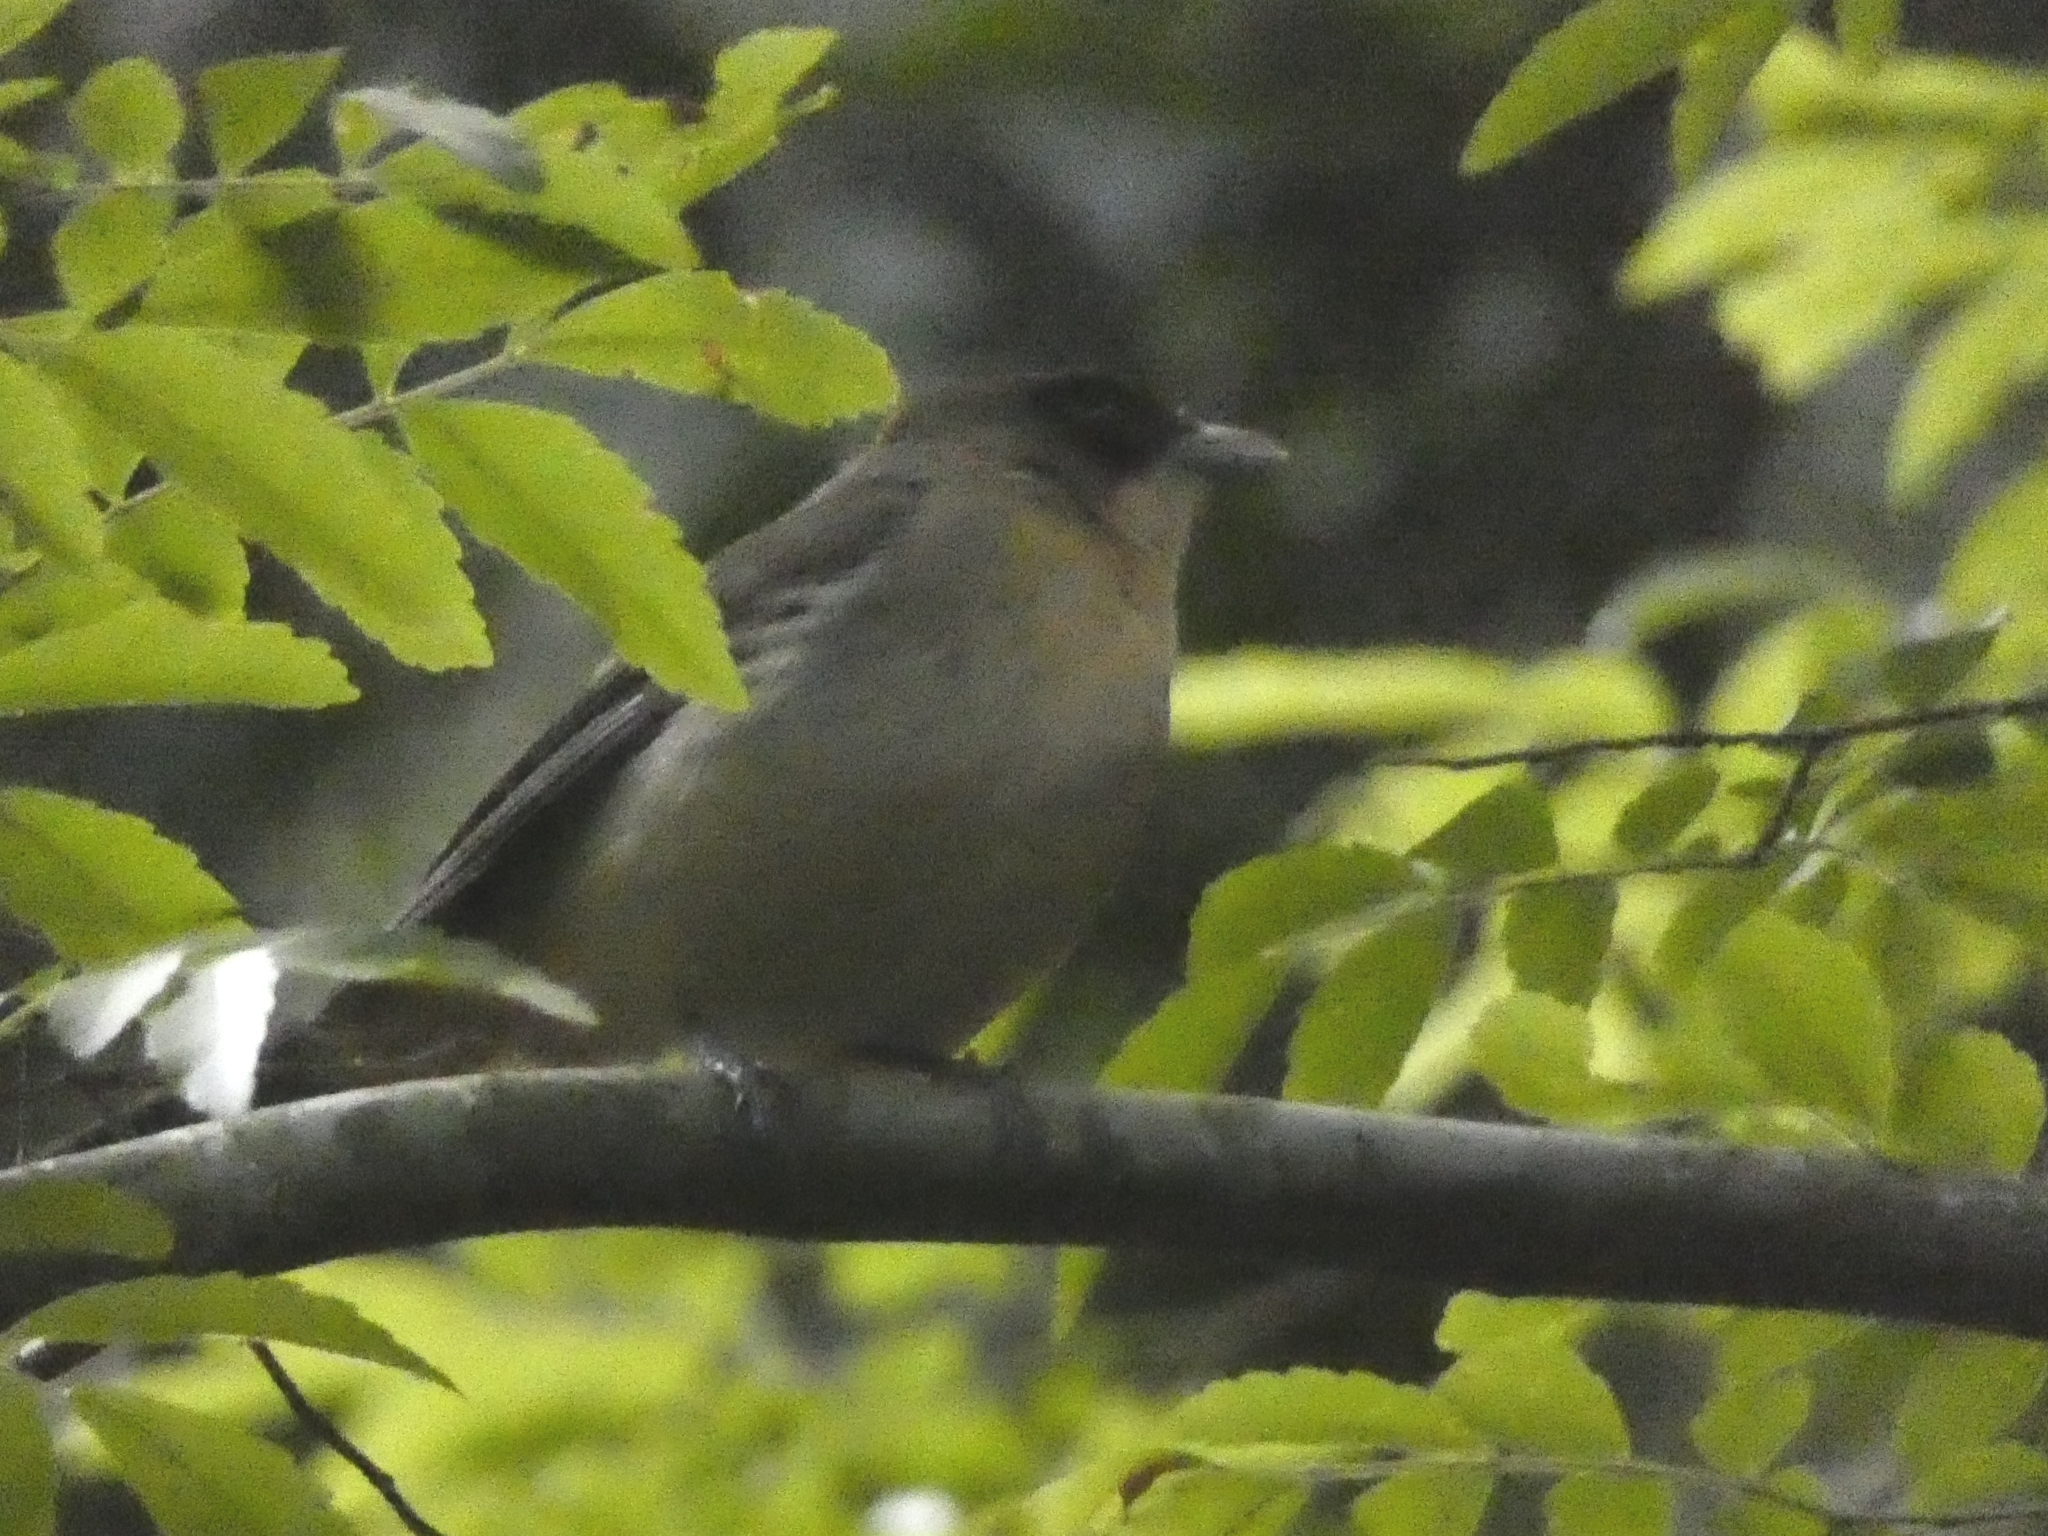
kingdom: Animalia
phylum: Chordata
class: Aves
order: Passeriformes
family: Thraupidae
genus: Trichothraupis
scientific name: Trichothraupis melanops
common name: Black-goggled tanager
